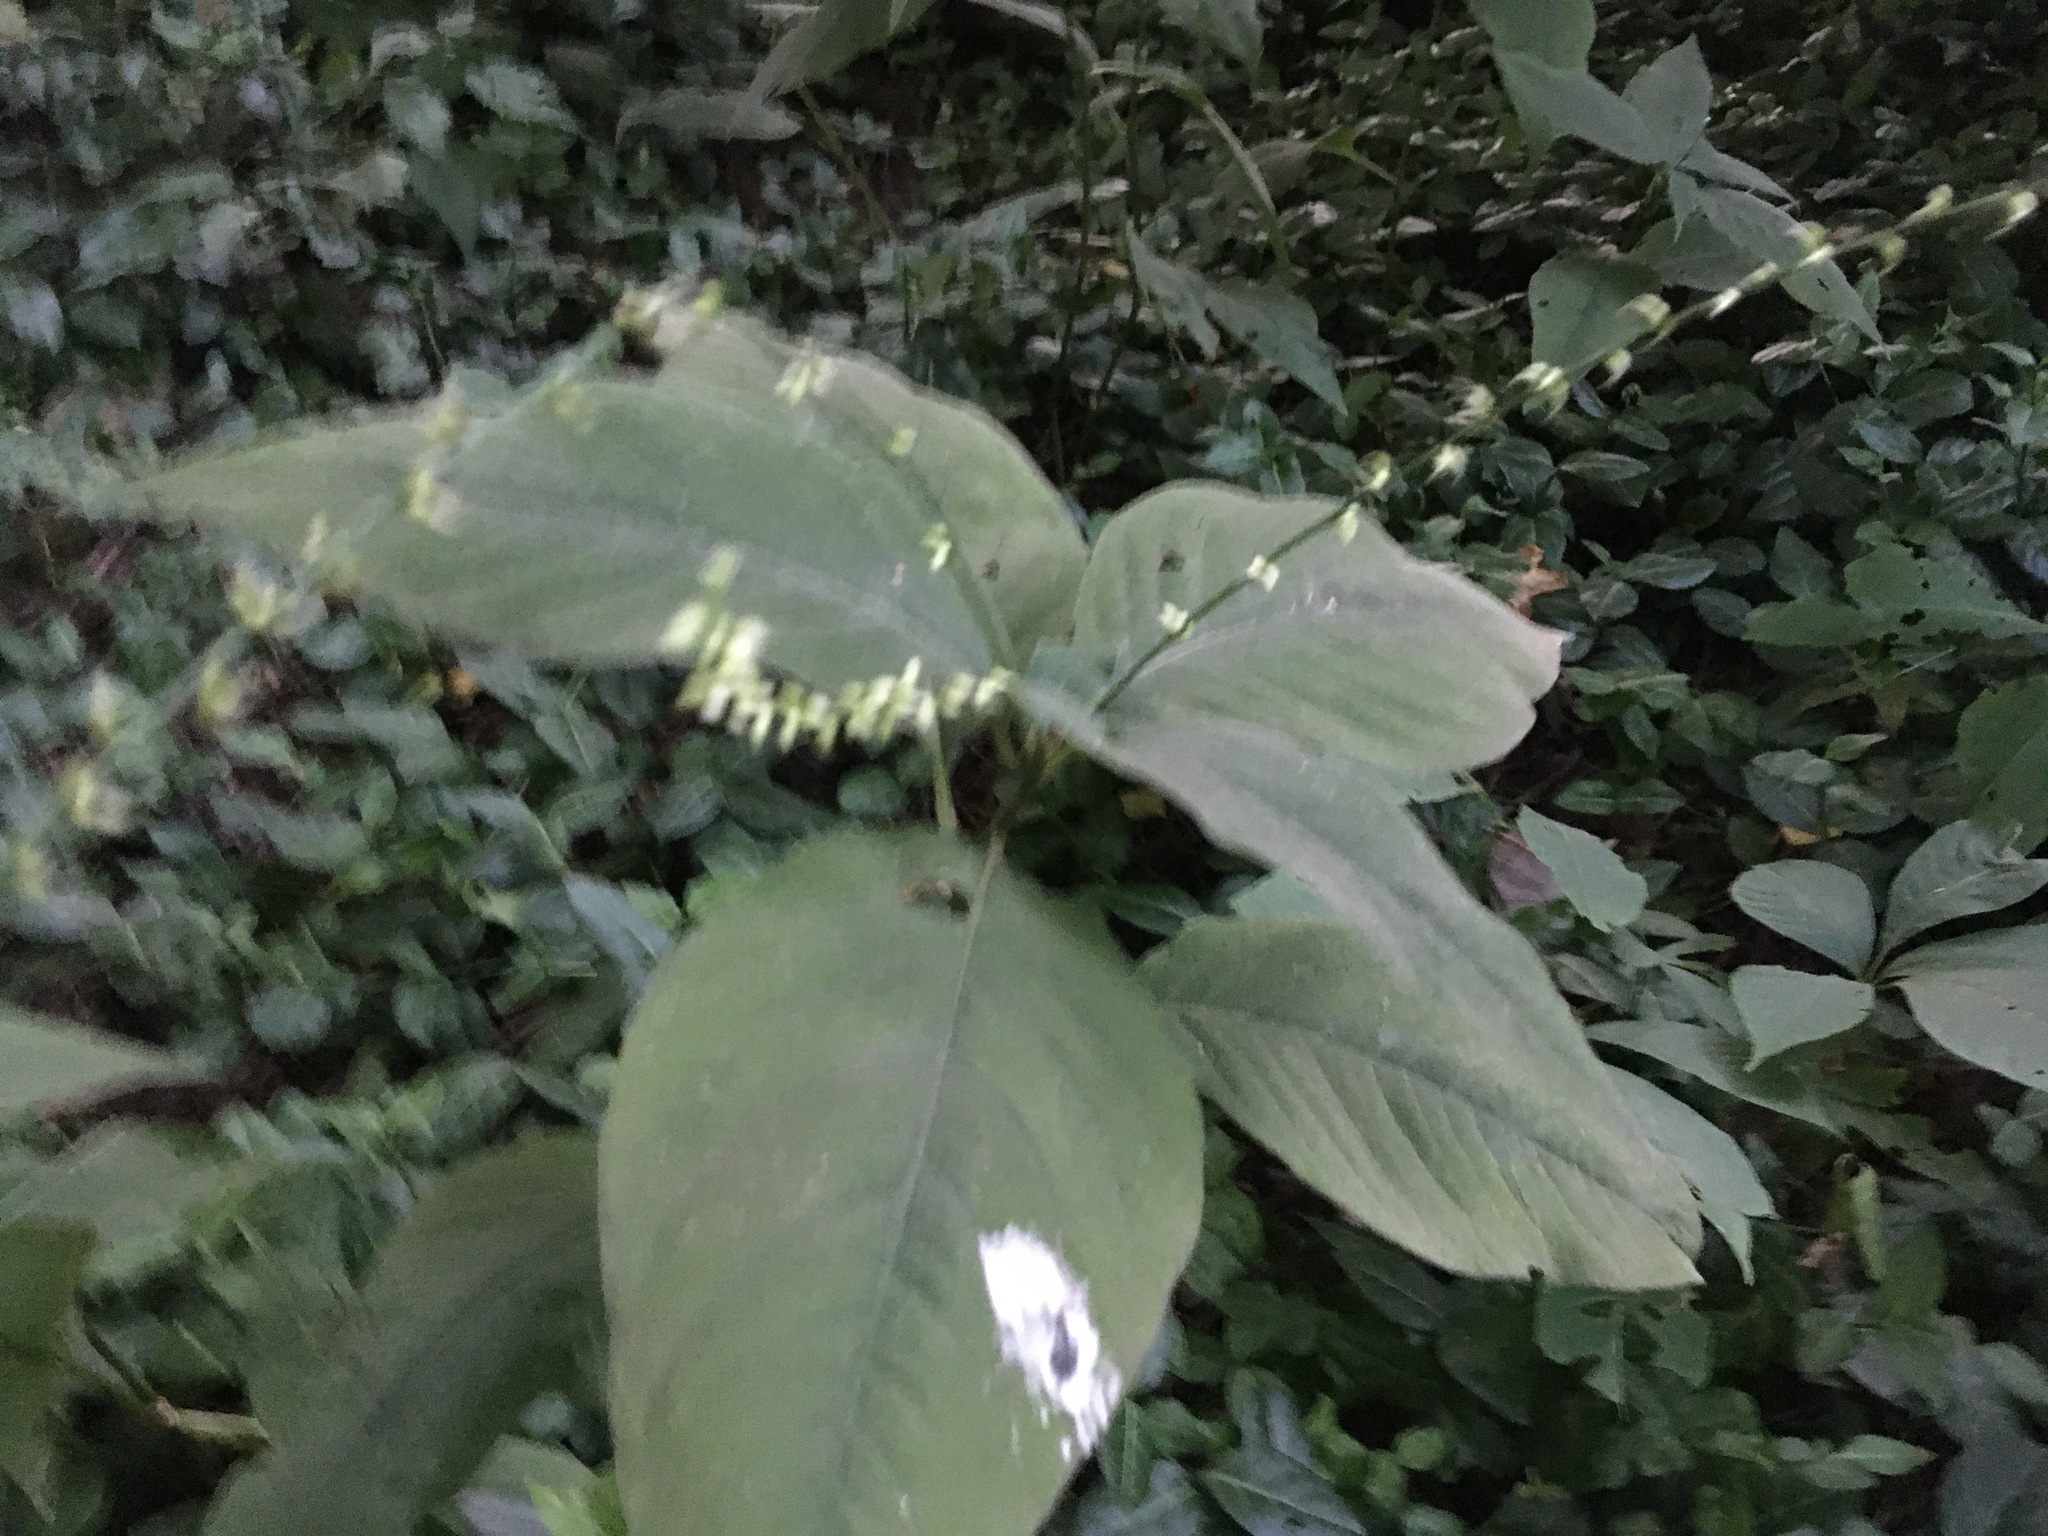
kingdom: Plantae
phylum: Tracheophyta
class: Magnoliopsida
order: Caryophyllales
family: Polygonaceae
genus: Persicaria
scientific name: Persicaria virginiana
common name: Jumpseed
